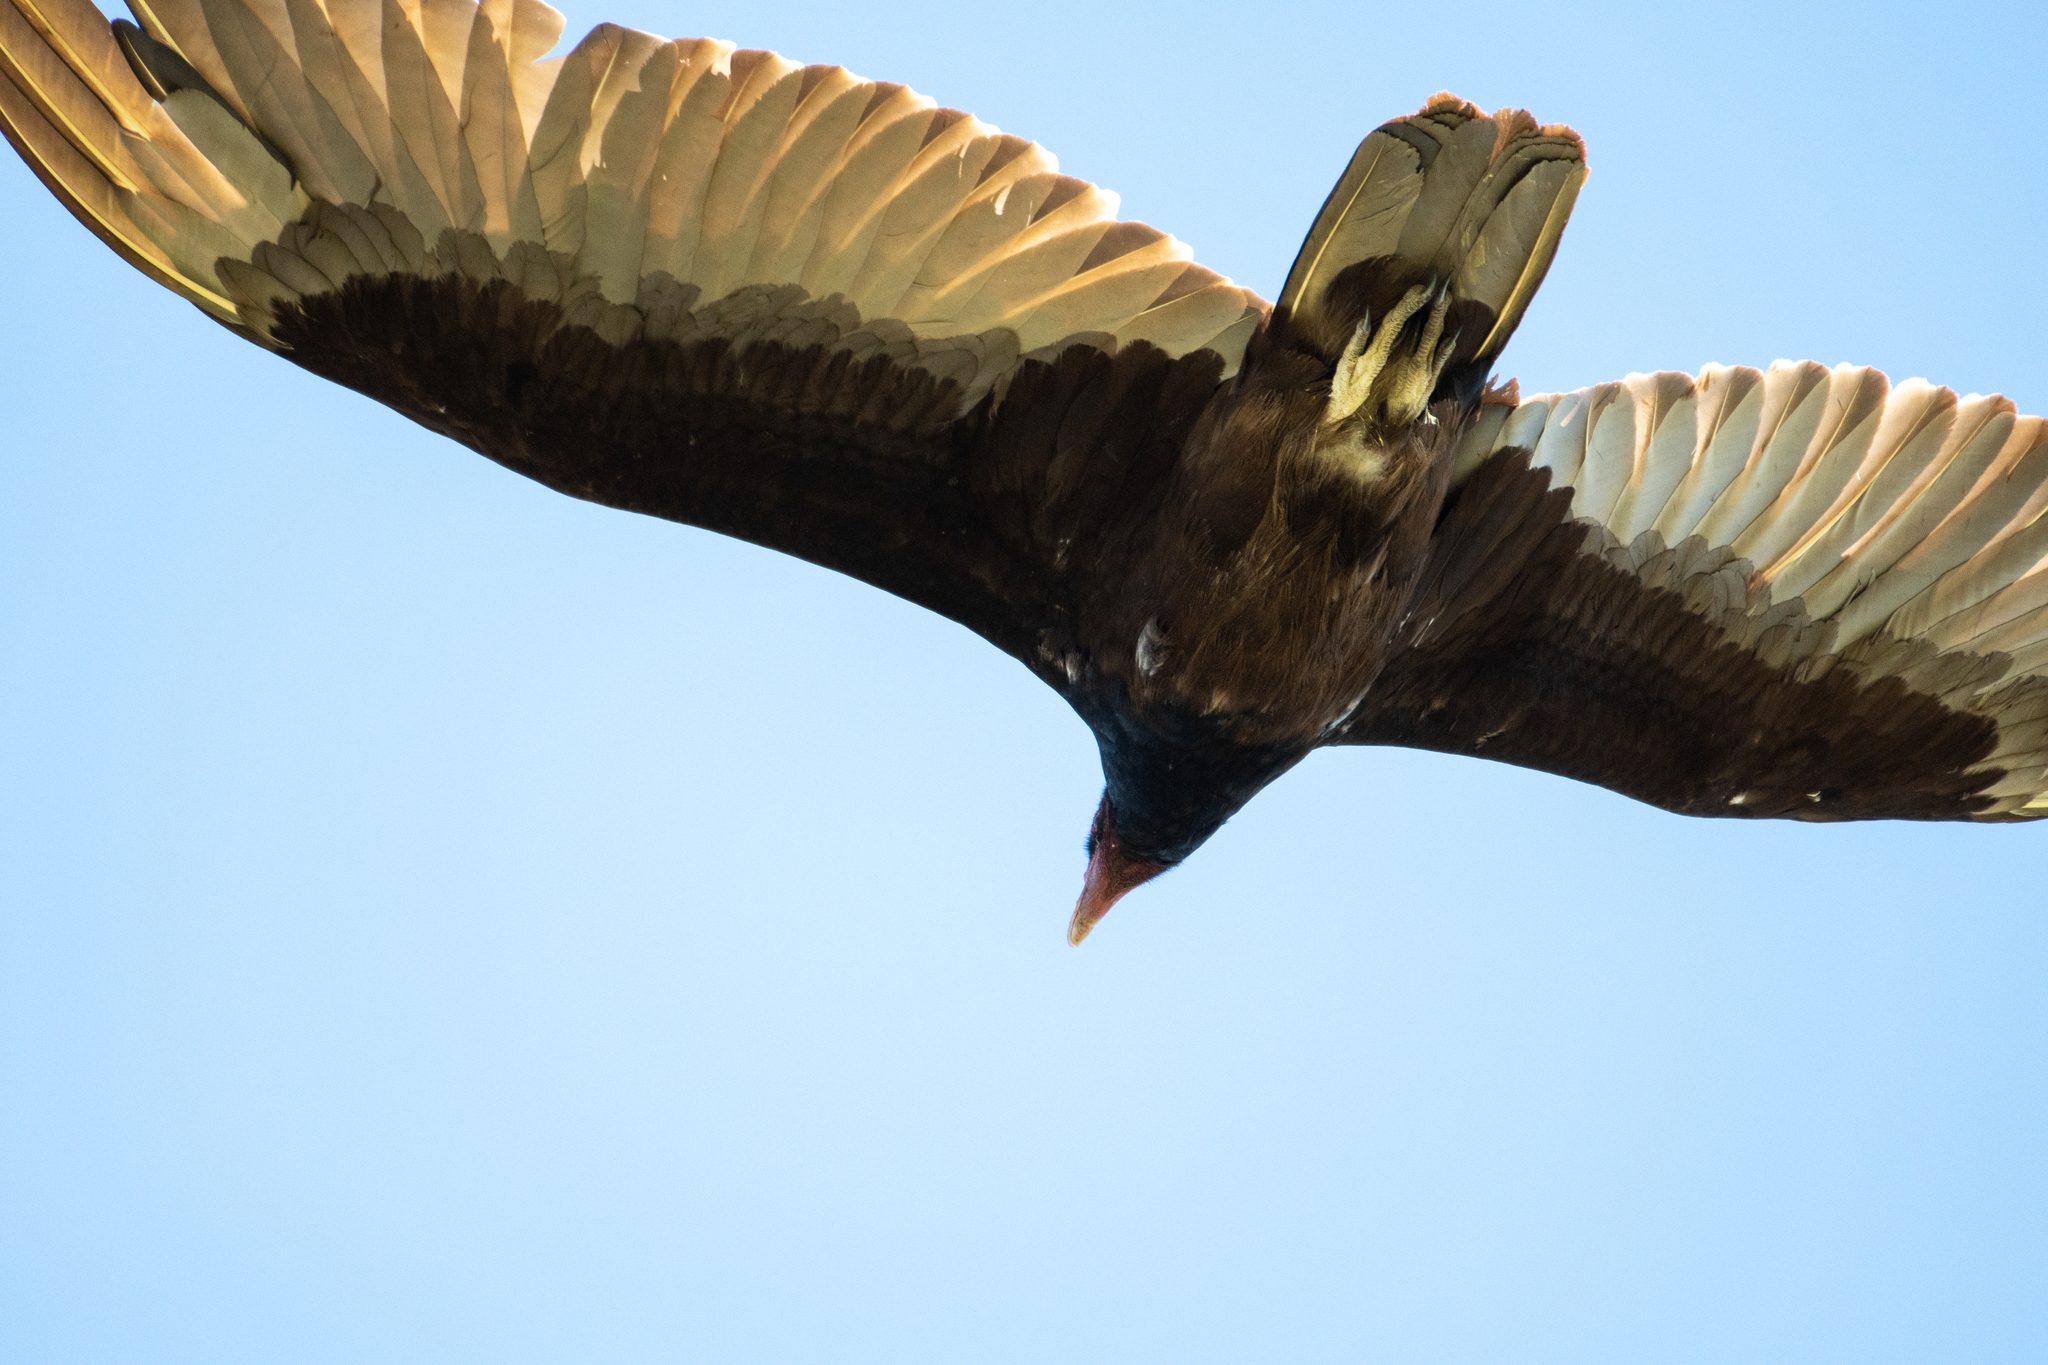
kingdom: Animalia
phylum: Chordata
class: Aves
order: Accipitriformes
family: Cathartidae
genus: Cathartes
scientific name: Cathartes aura
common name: Turkey vulture
